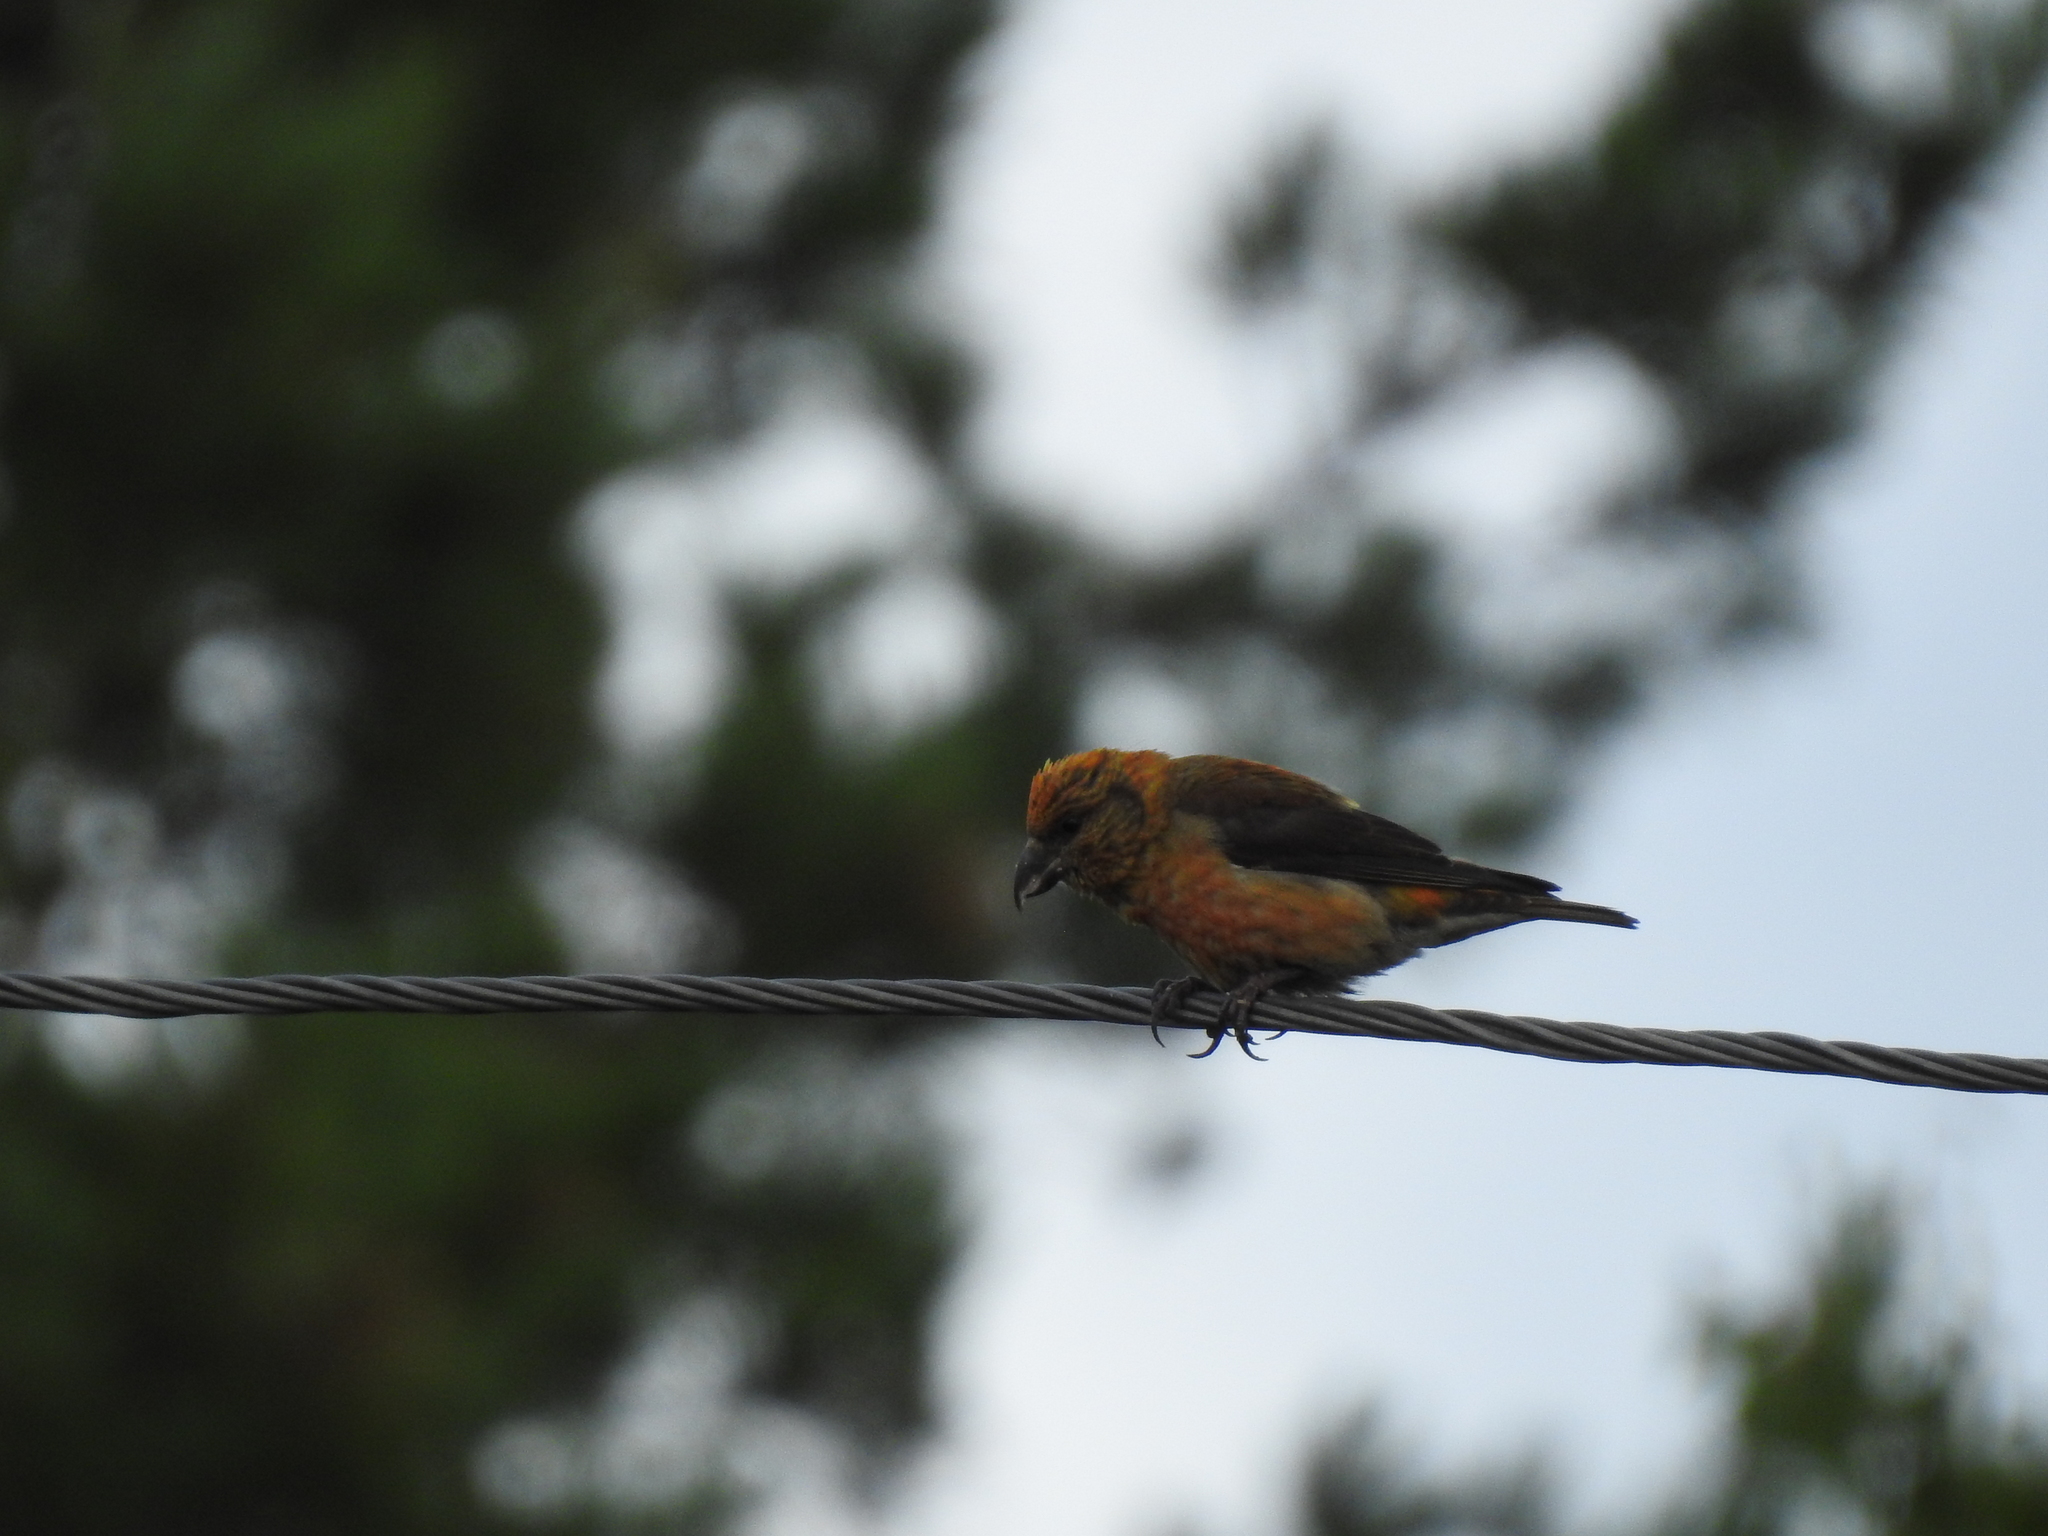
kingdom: Animalia
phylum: Chordata
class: Aves
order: Passeriformes
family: Fringillidae
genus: Loxia
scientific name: Loxia curvirostra
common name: Red crossbill
